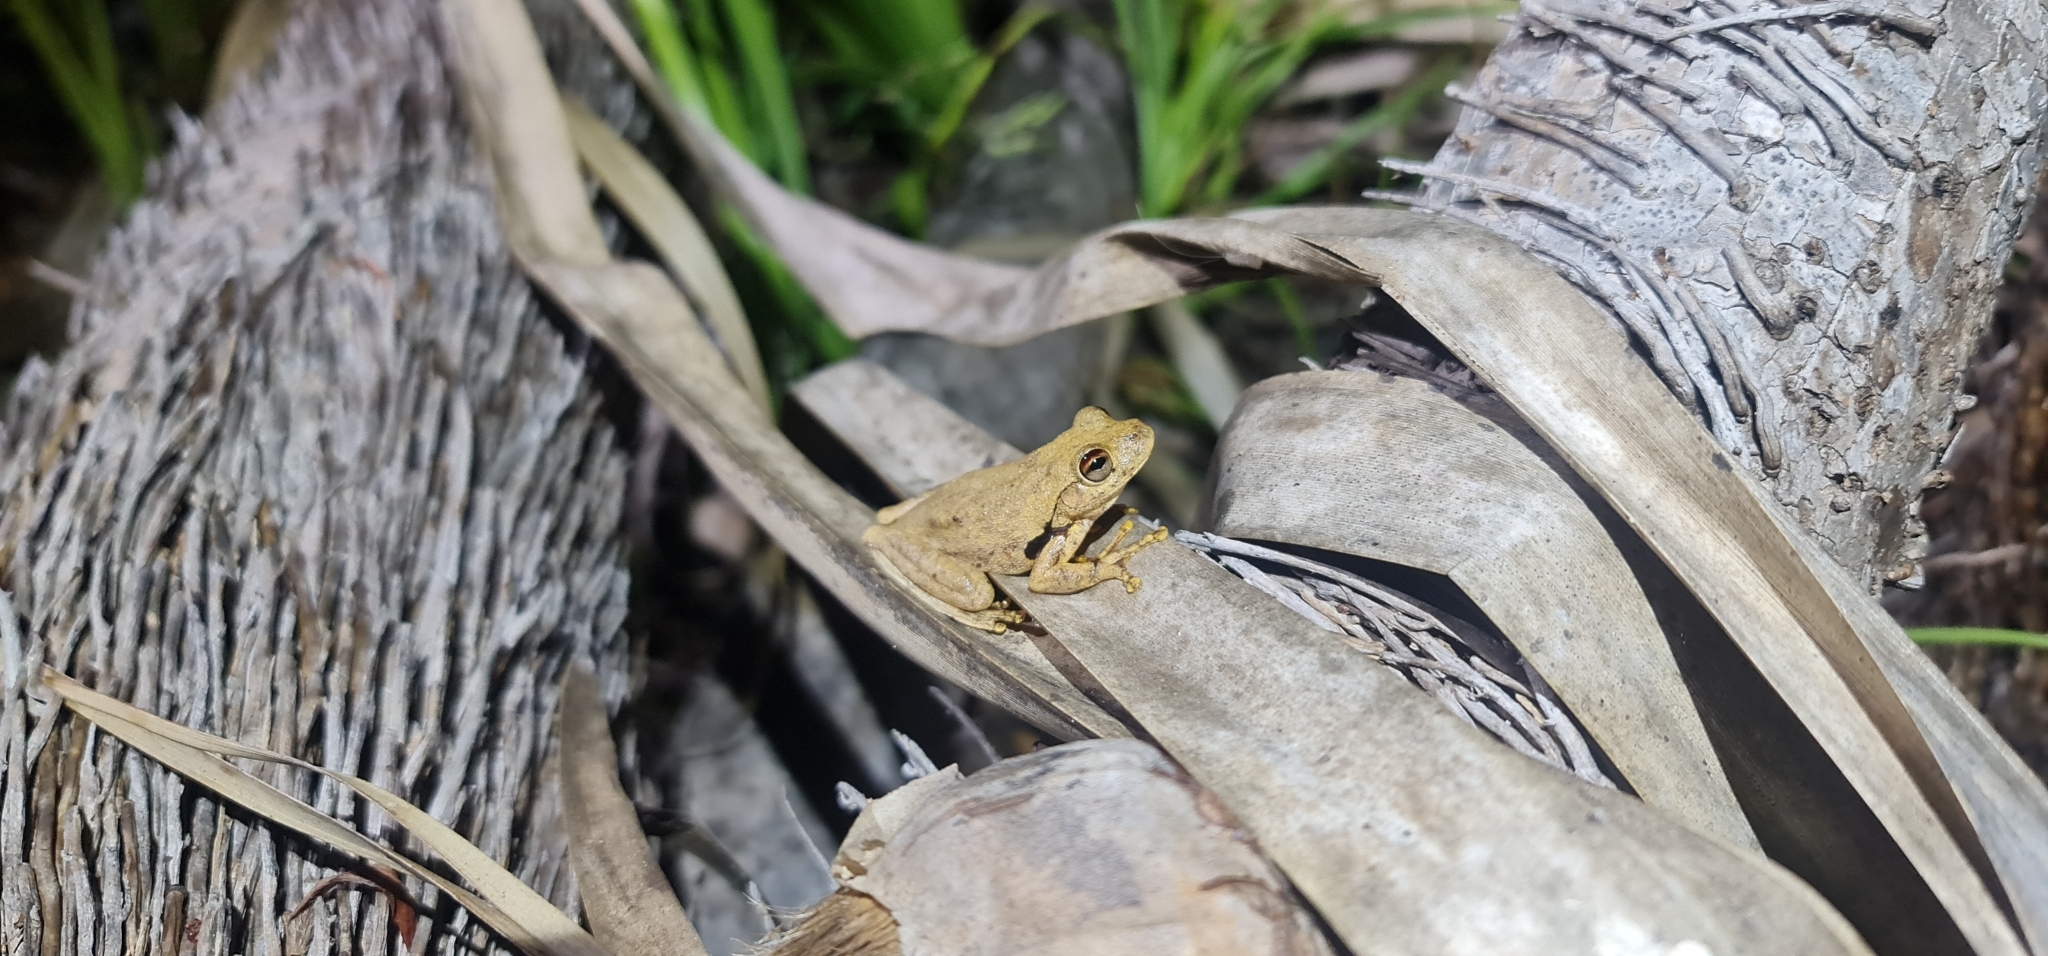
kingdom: Animalia
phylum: Chordata
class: Amphibia
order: Anura
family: Pelodryadidae
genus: Litoria
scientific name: Litoria
